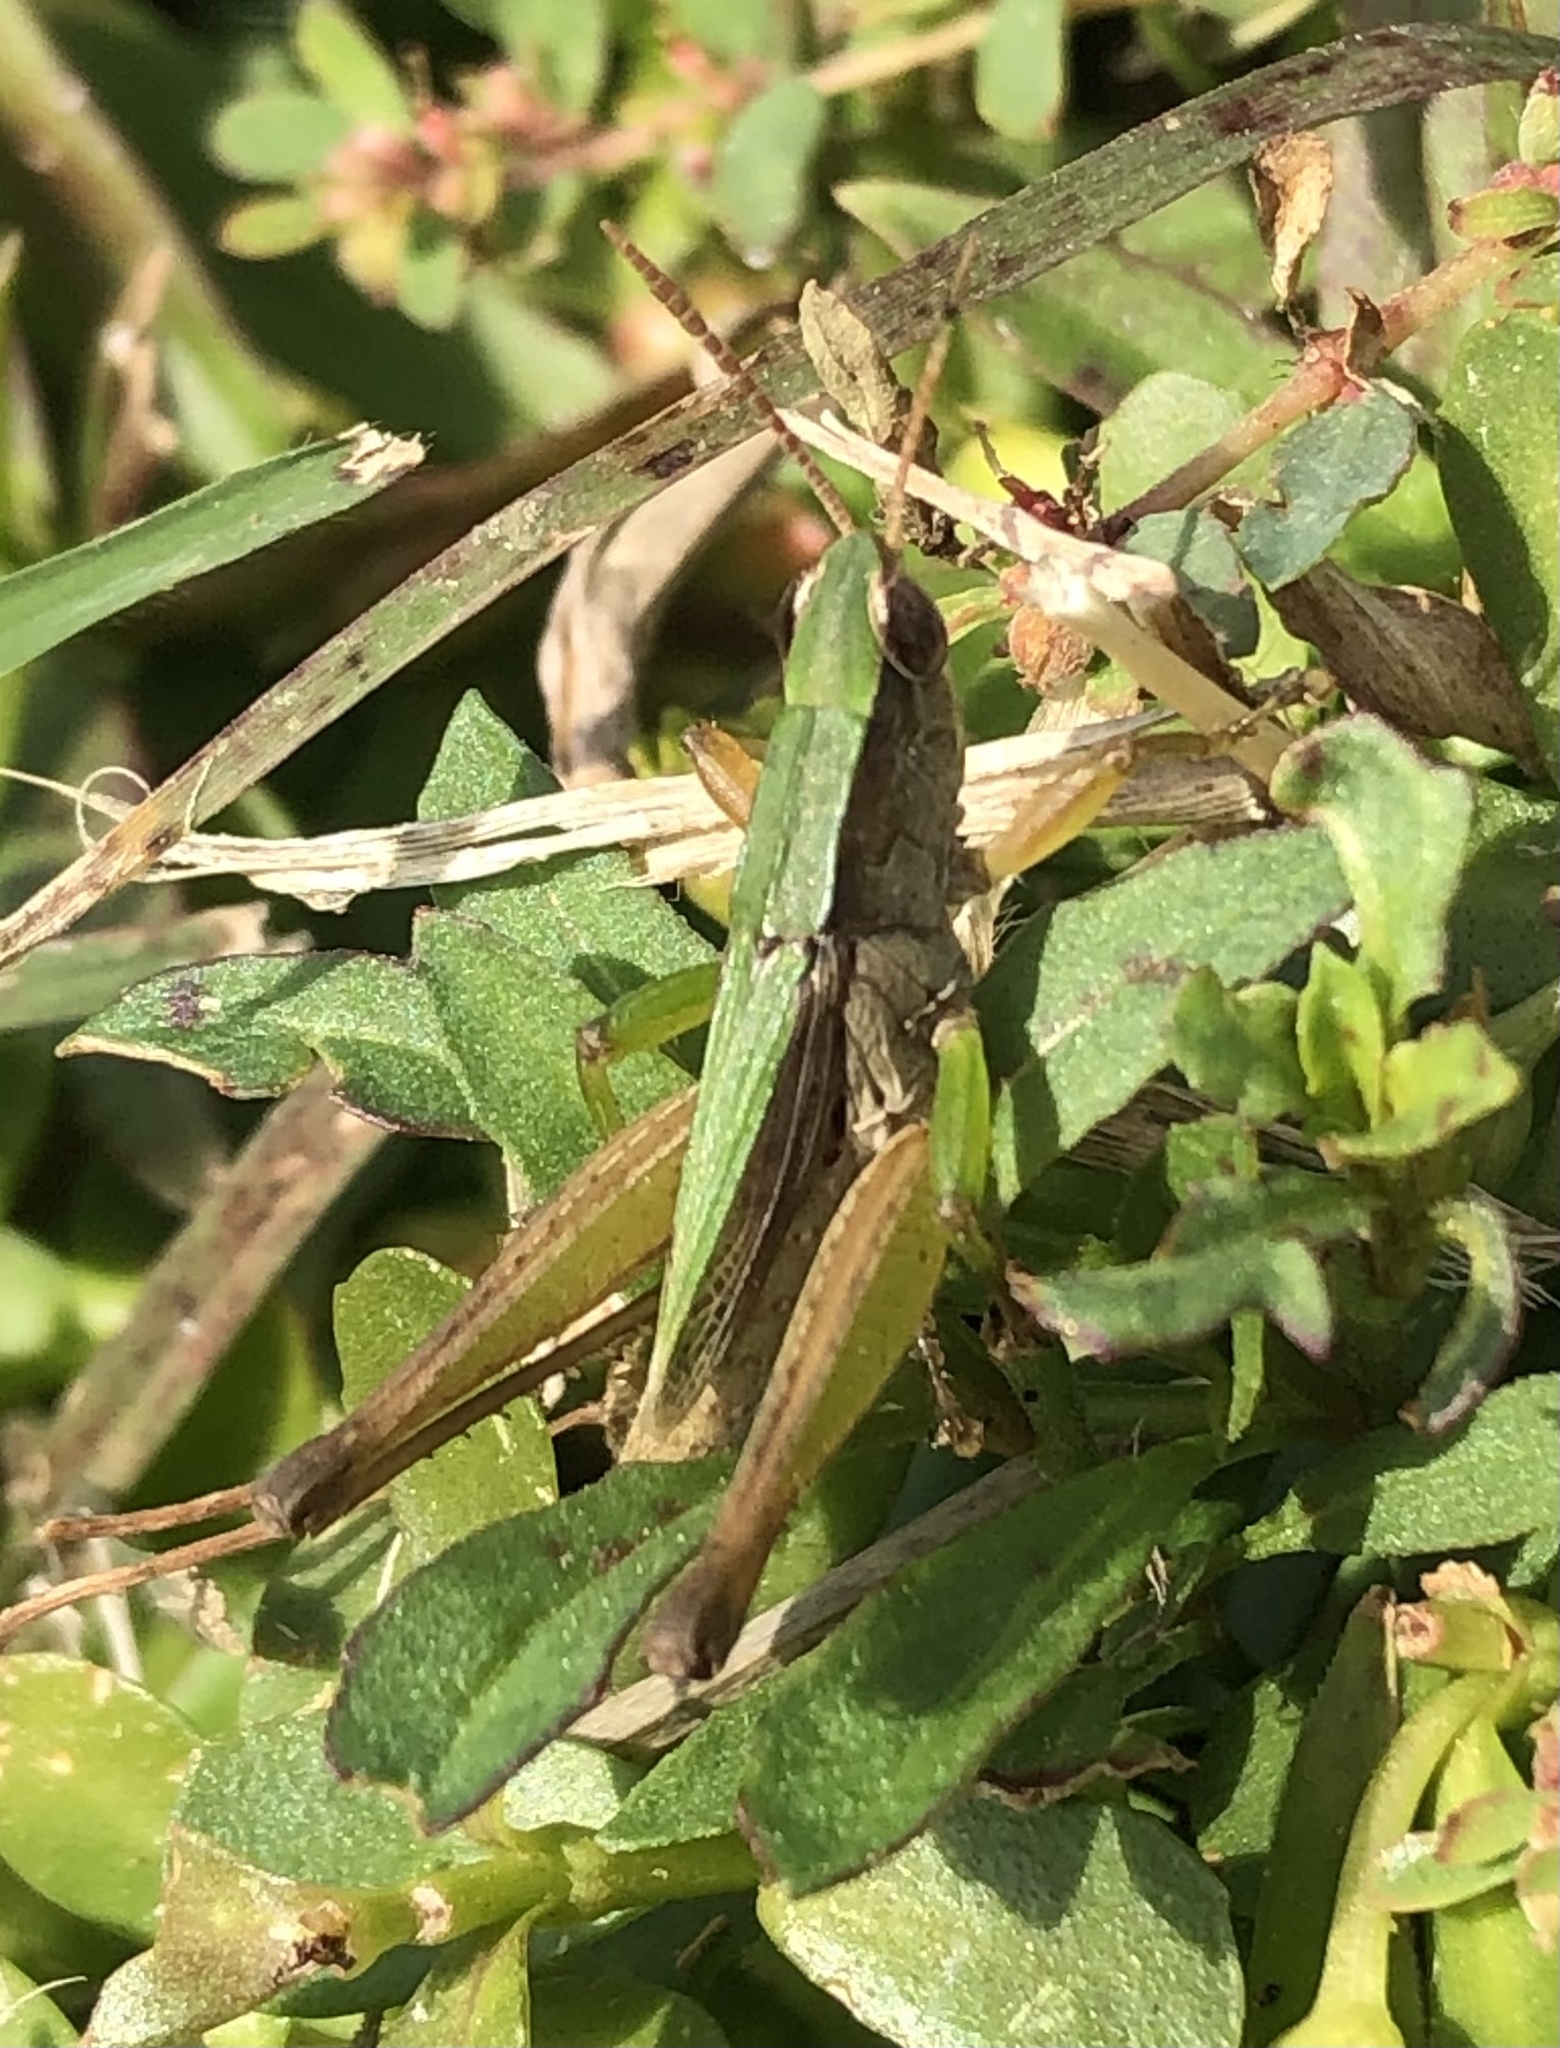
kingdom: Animalia
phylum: Arthropoda
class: Insecta
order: Orthoptera
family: Acrididae
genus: Dichromorpha
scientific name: Dichromorpha viridis
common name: Short-winged green grasshopper
